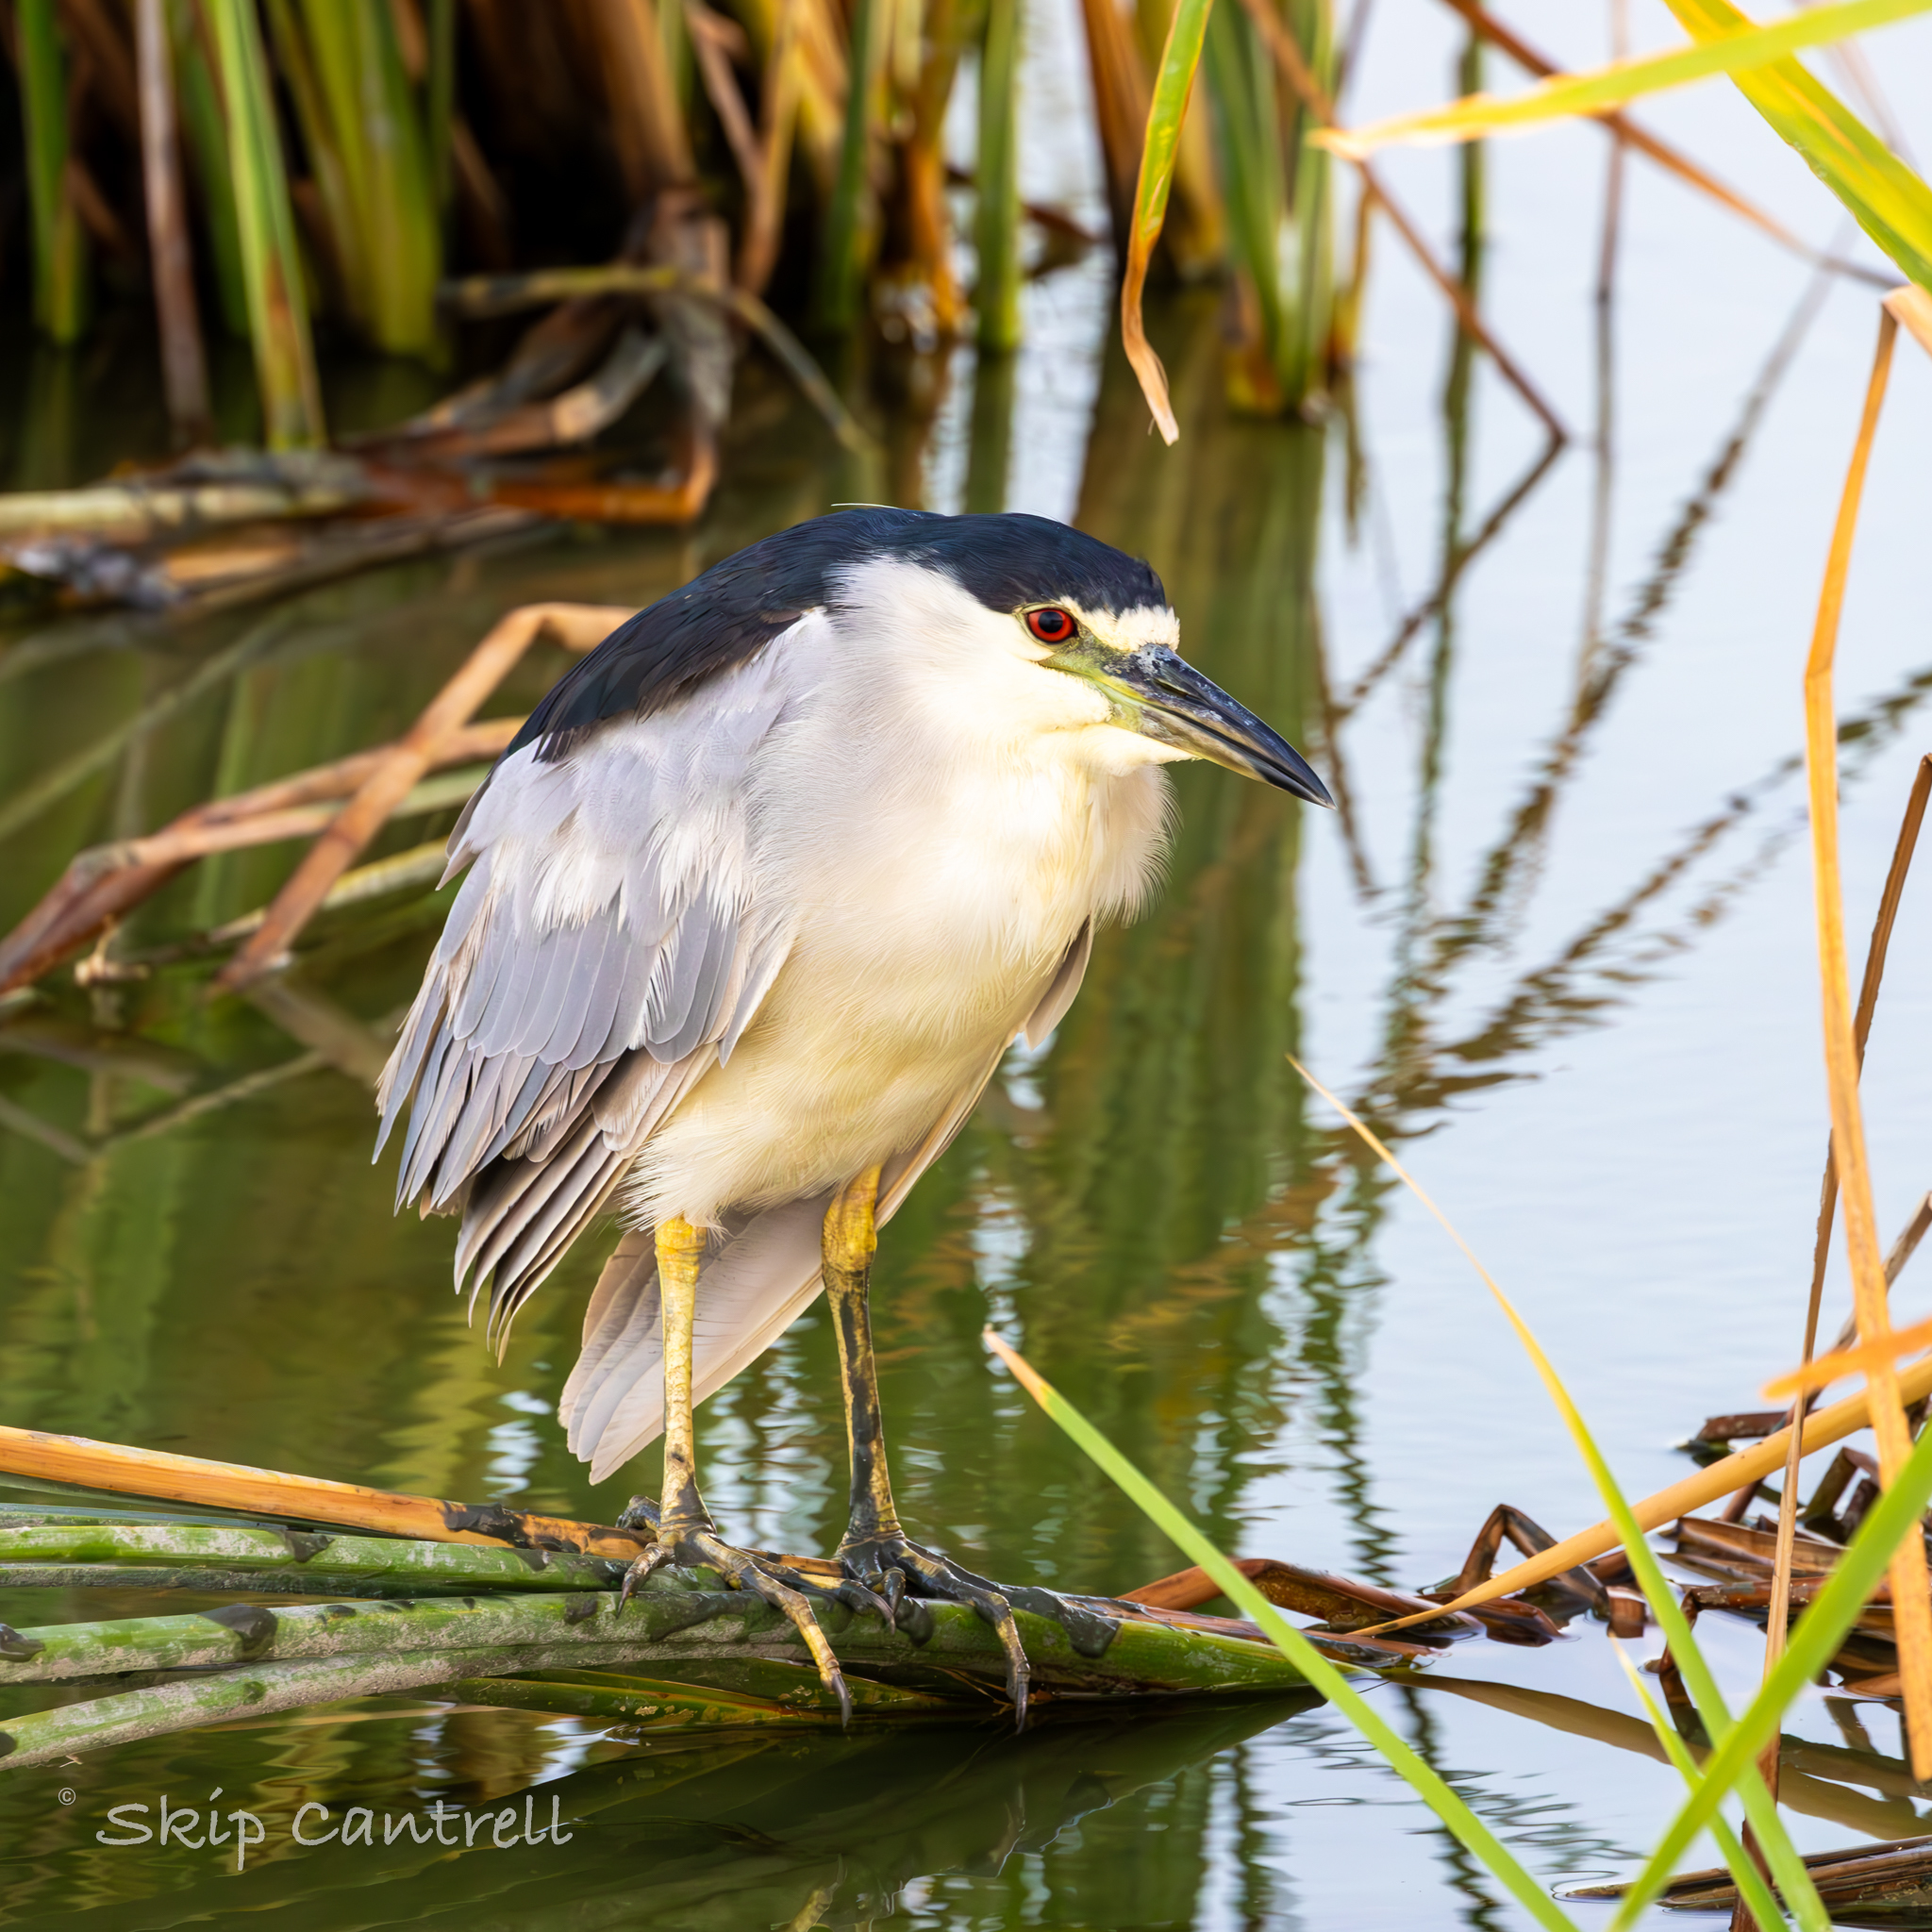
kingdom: Animalia
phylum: Chordata
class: Aves
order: Pelecaniformes
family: Ardeidae
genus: Nycticorax
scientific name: Nycticorax nycticorax
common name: Black-crowned night heron
